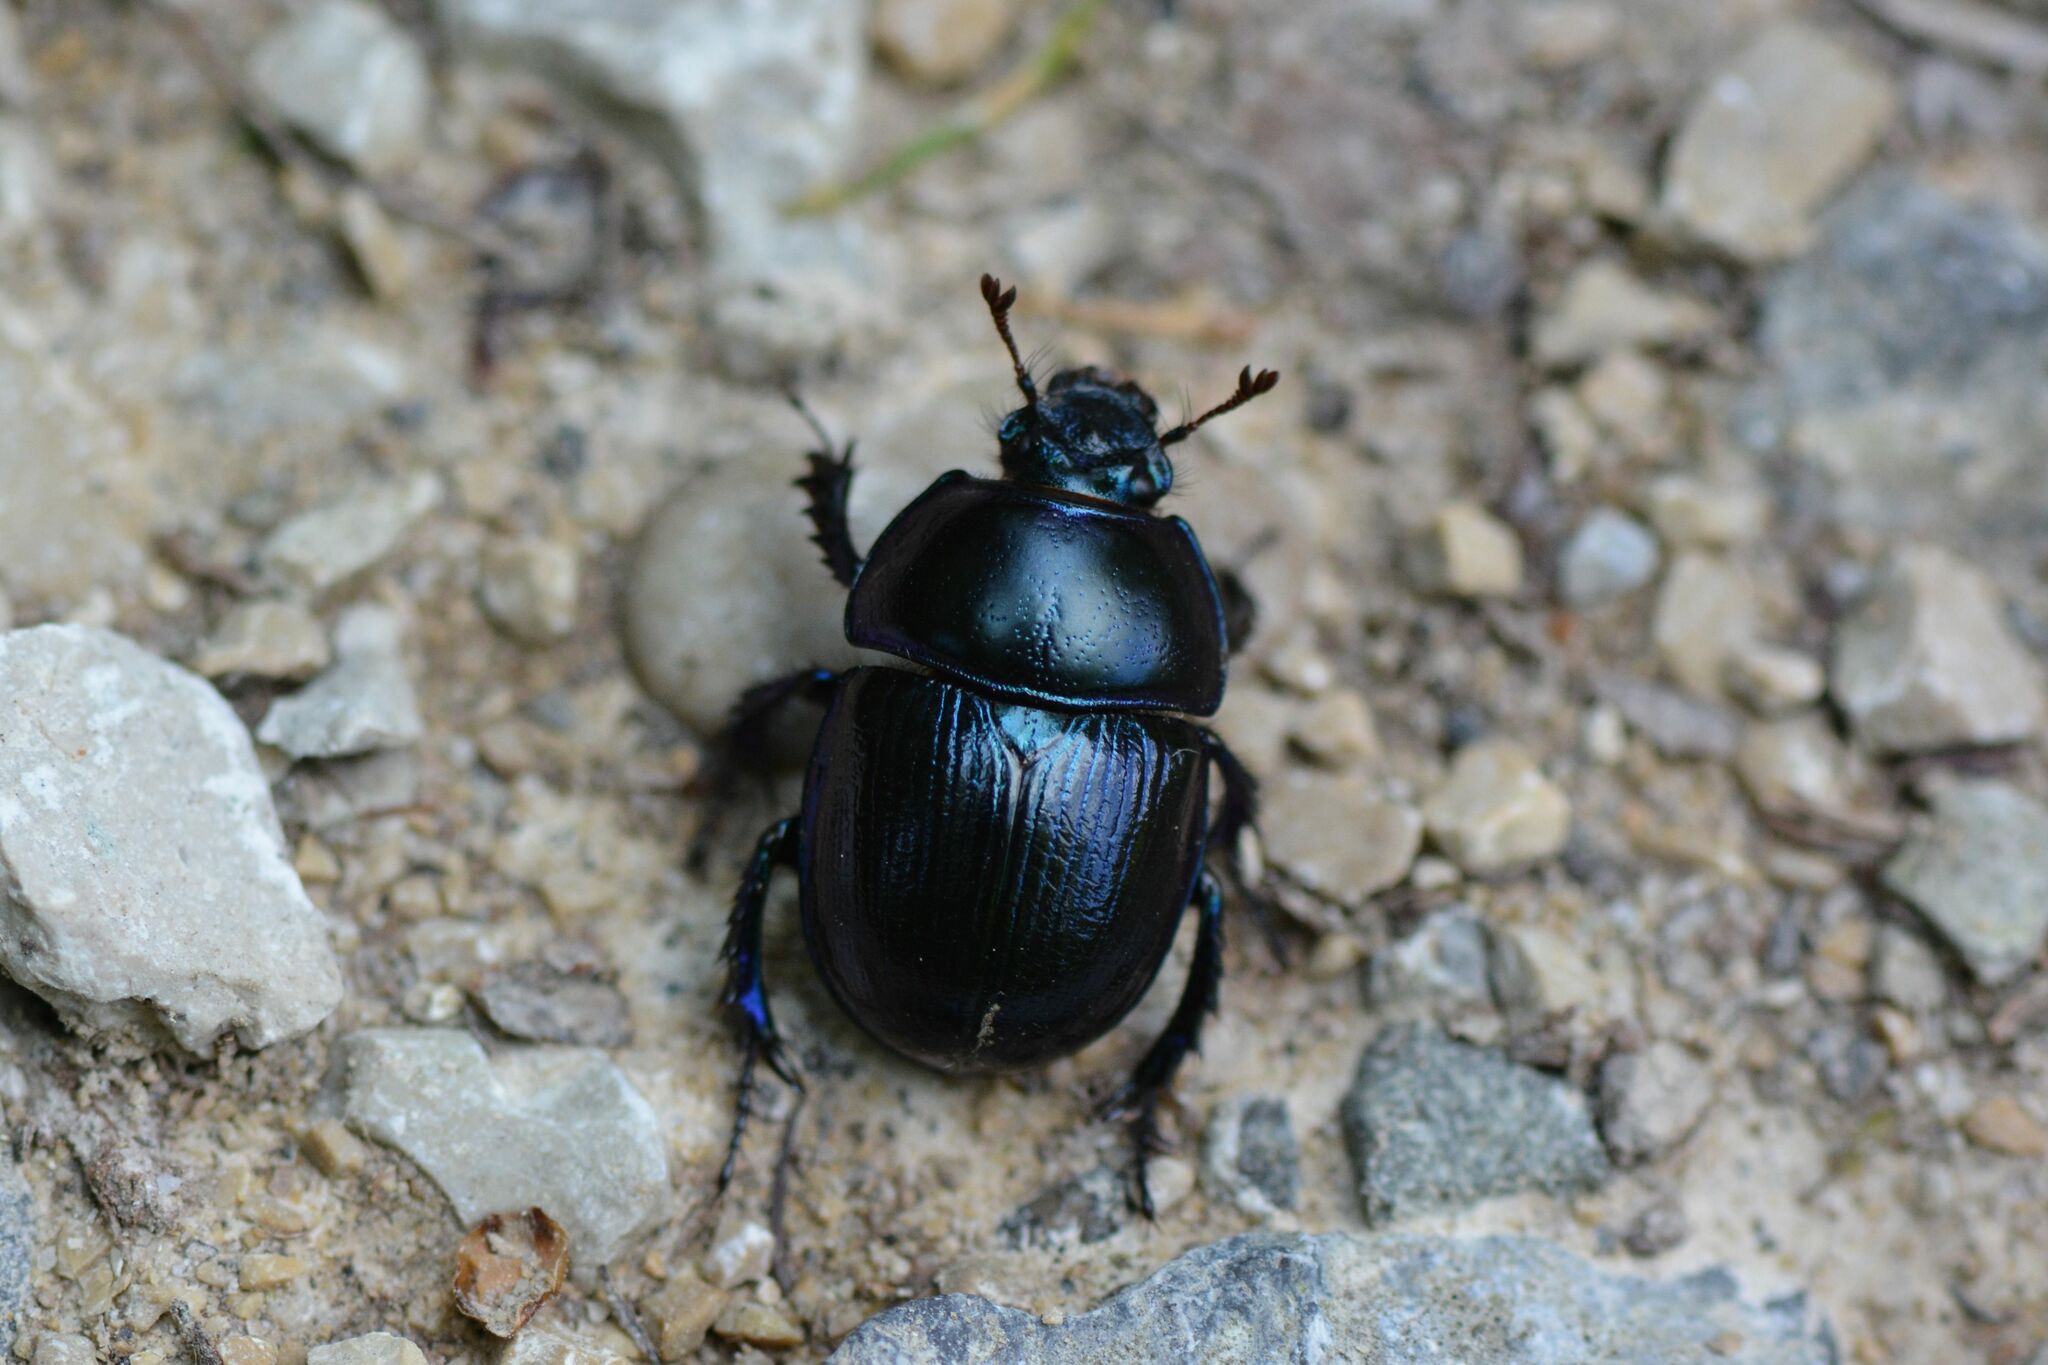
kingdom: Animalia
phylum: Arthropoda
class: Insecta
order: Coleoptera
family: Geotrupidae
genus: Anoplotrupes
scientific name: Anoplotrupes stercorosus
